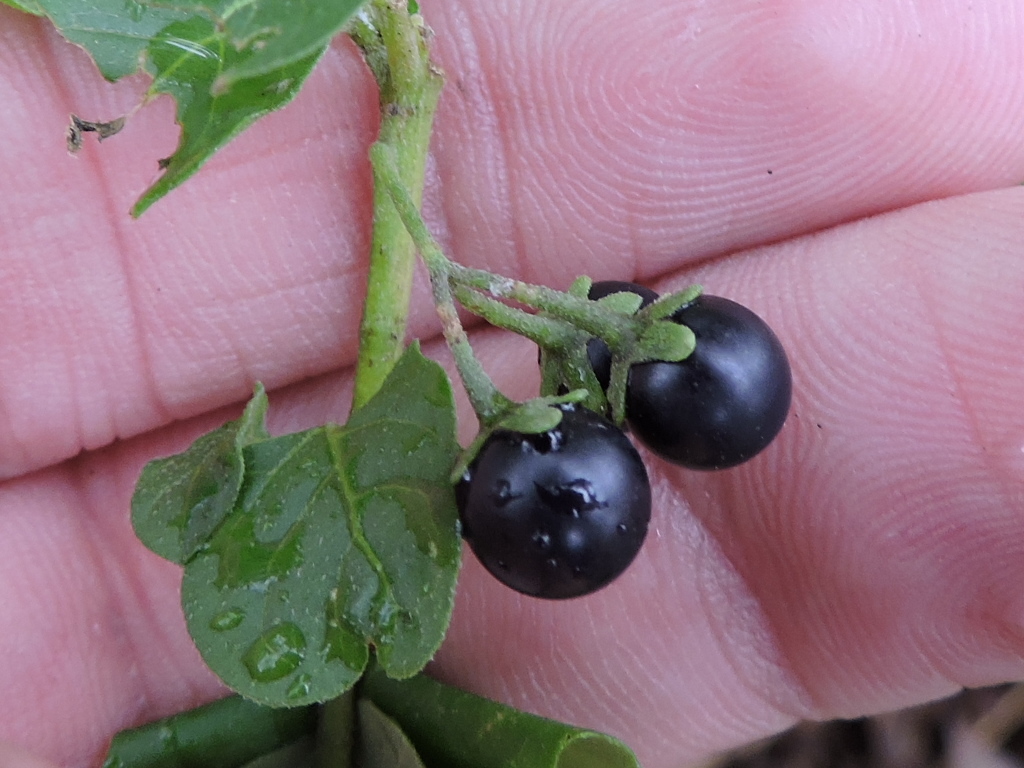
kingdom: Plantae
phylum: Tracheophyta
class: Magnoliopsida
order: Solanales
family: Solanaceae
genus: Solanum
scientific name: Solanum emulans
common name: Eastern black nightshade
